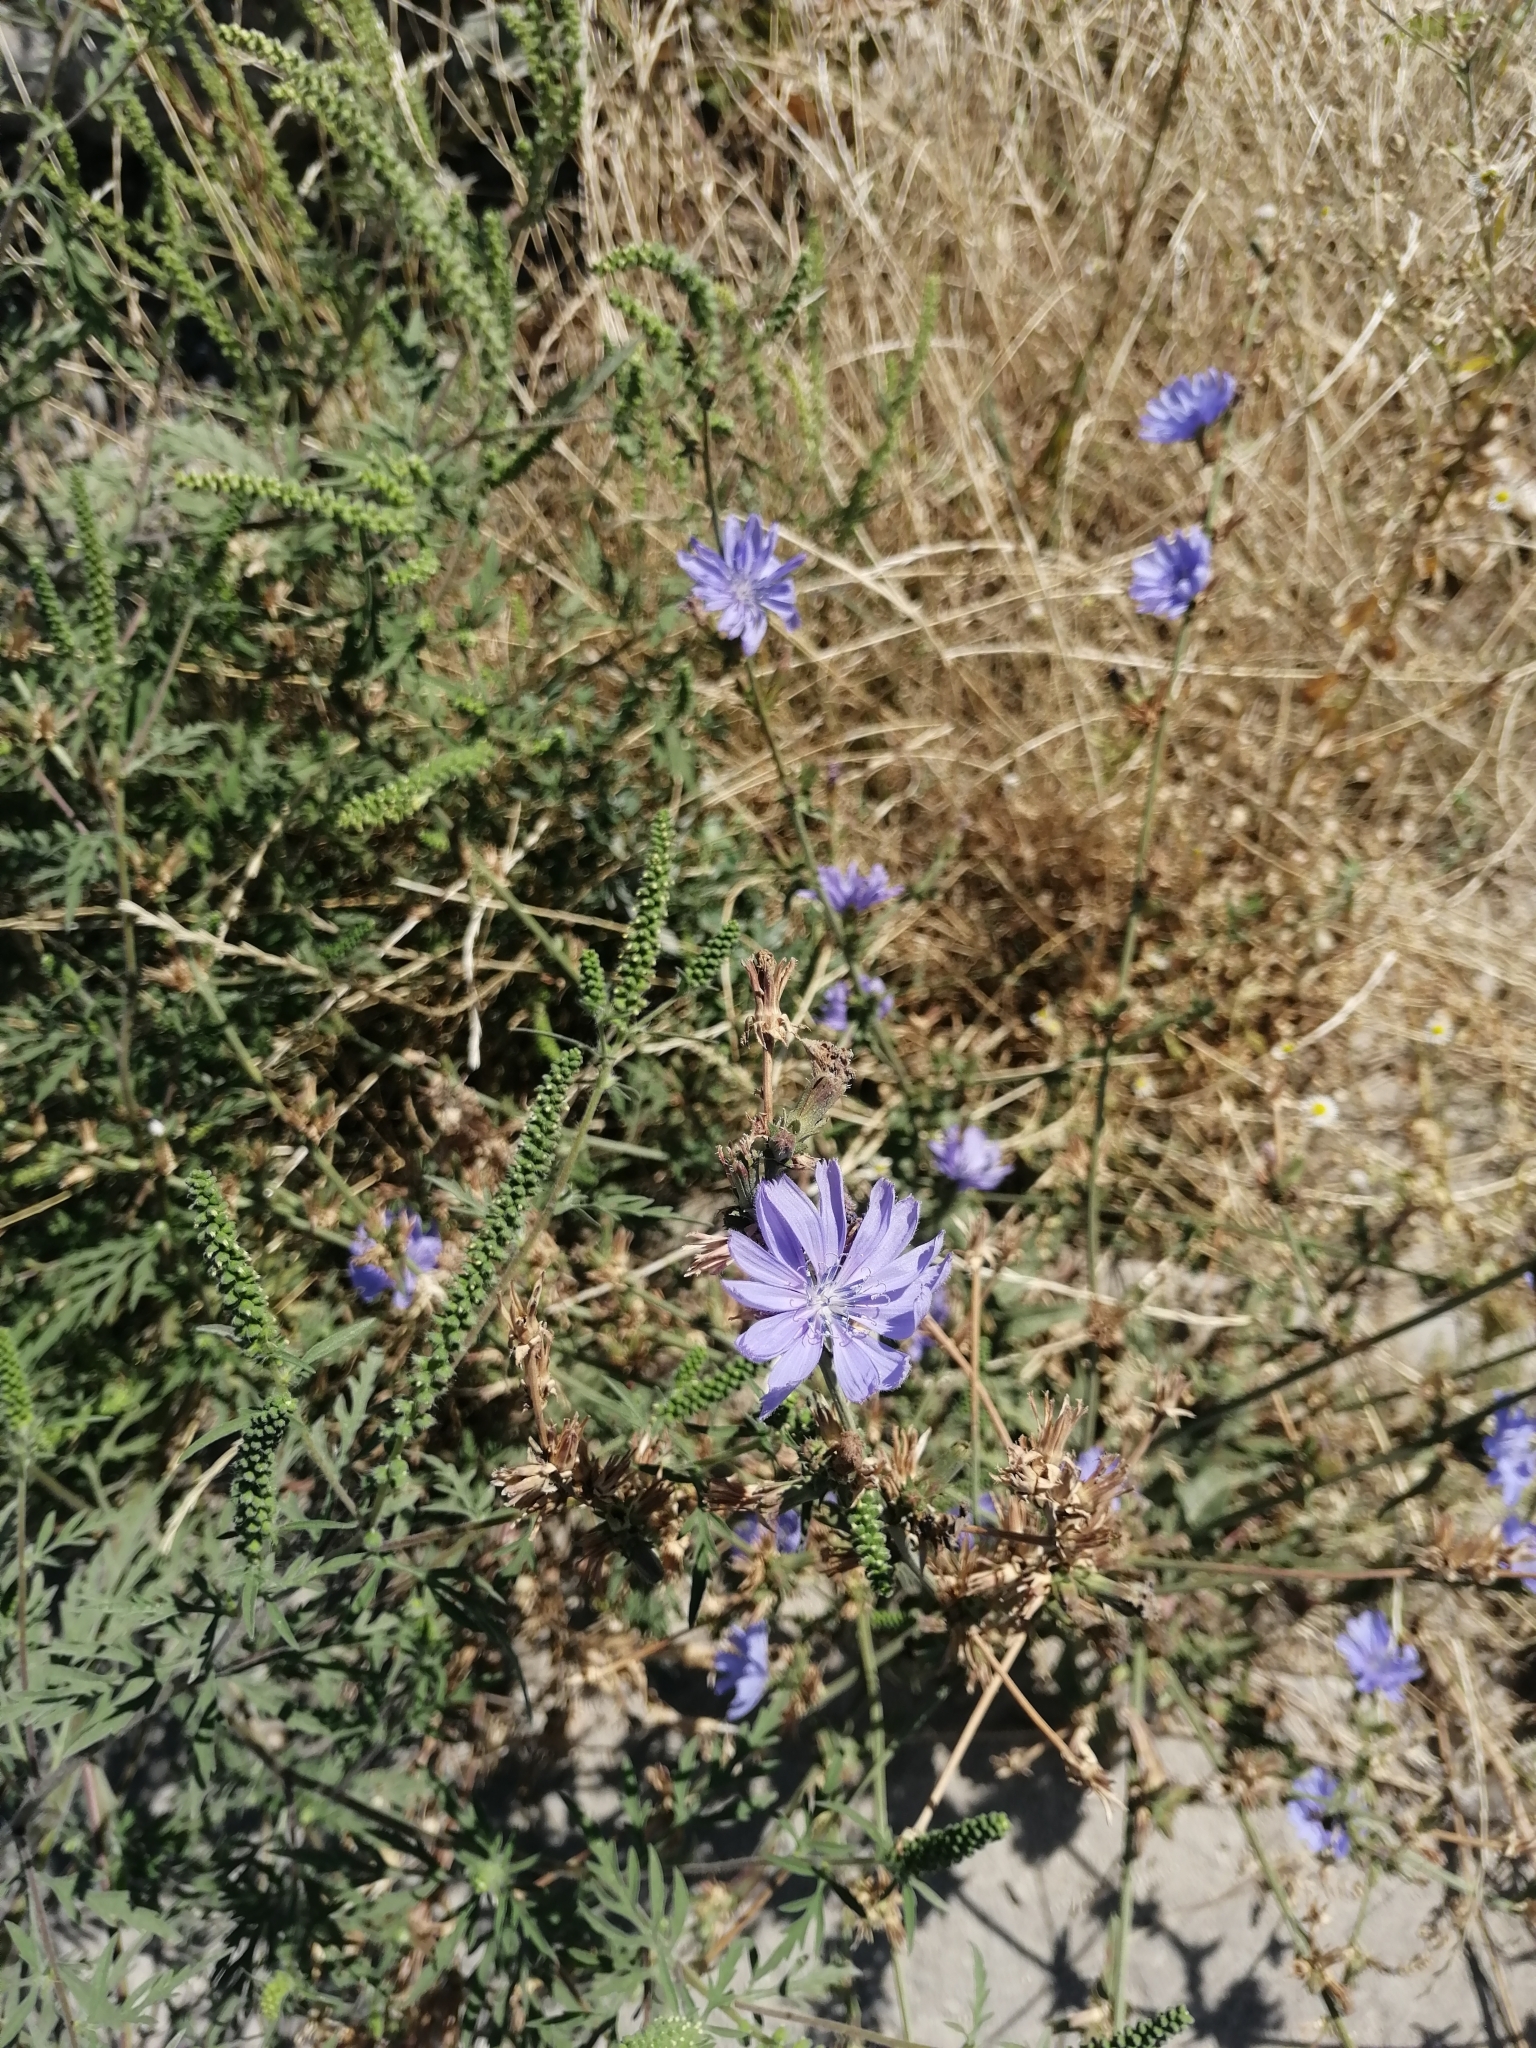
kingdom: Plantae
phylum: Tracheophyta
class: Magnoliopsida
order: Asterales
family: Asteraceae
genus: Cichorium
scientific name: Cichorium intybus
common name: Chicory
